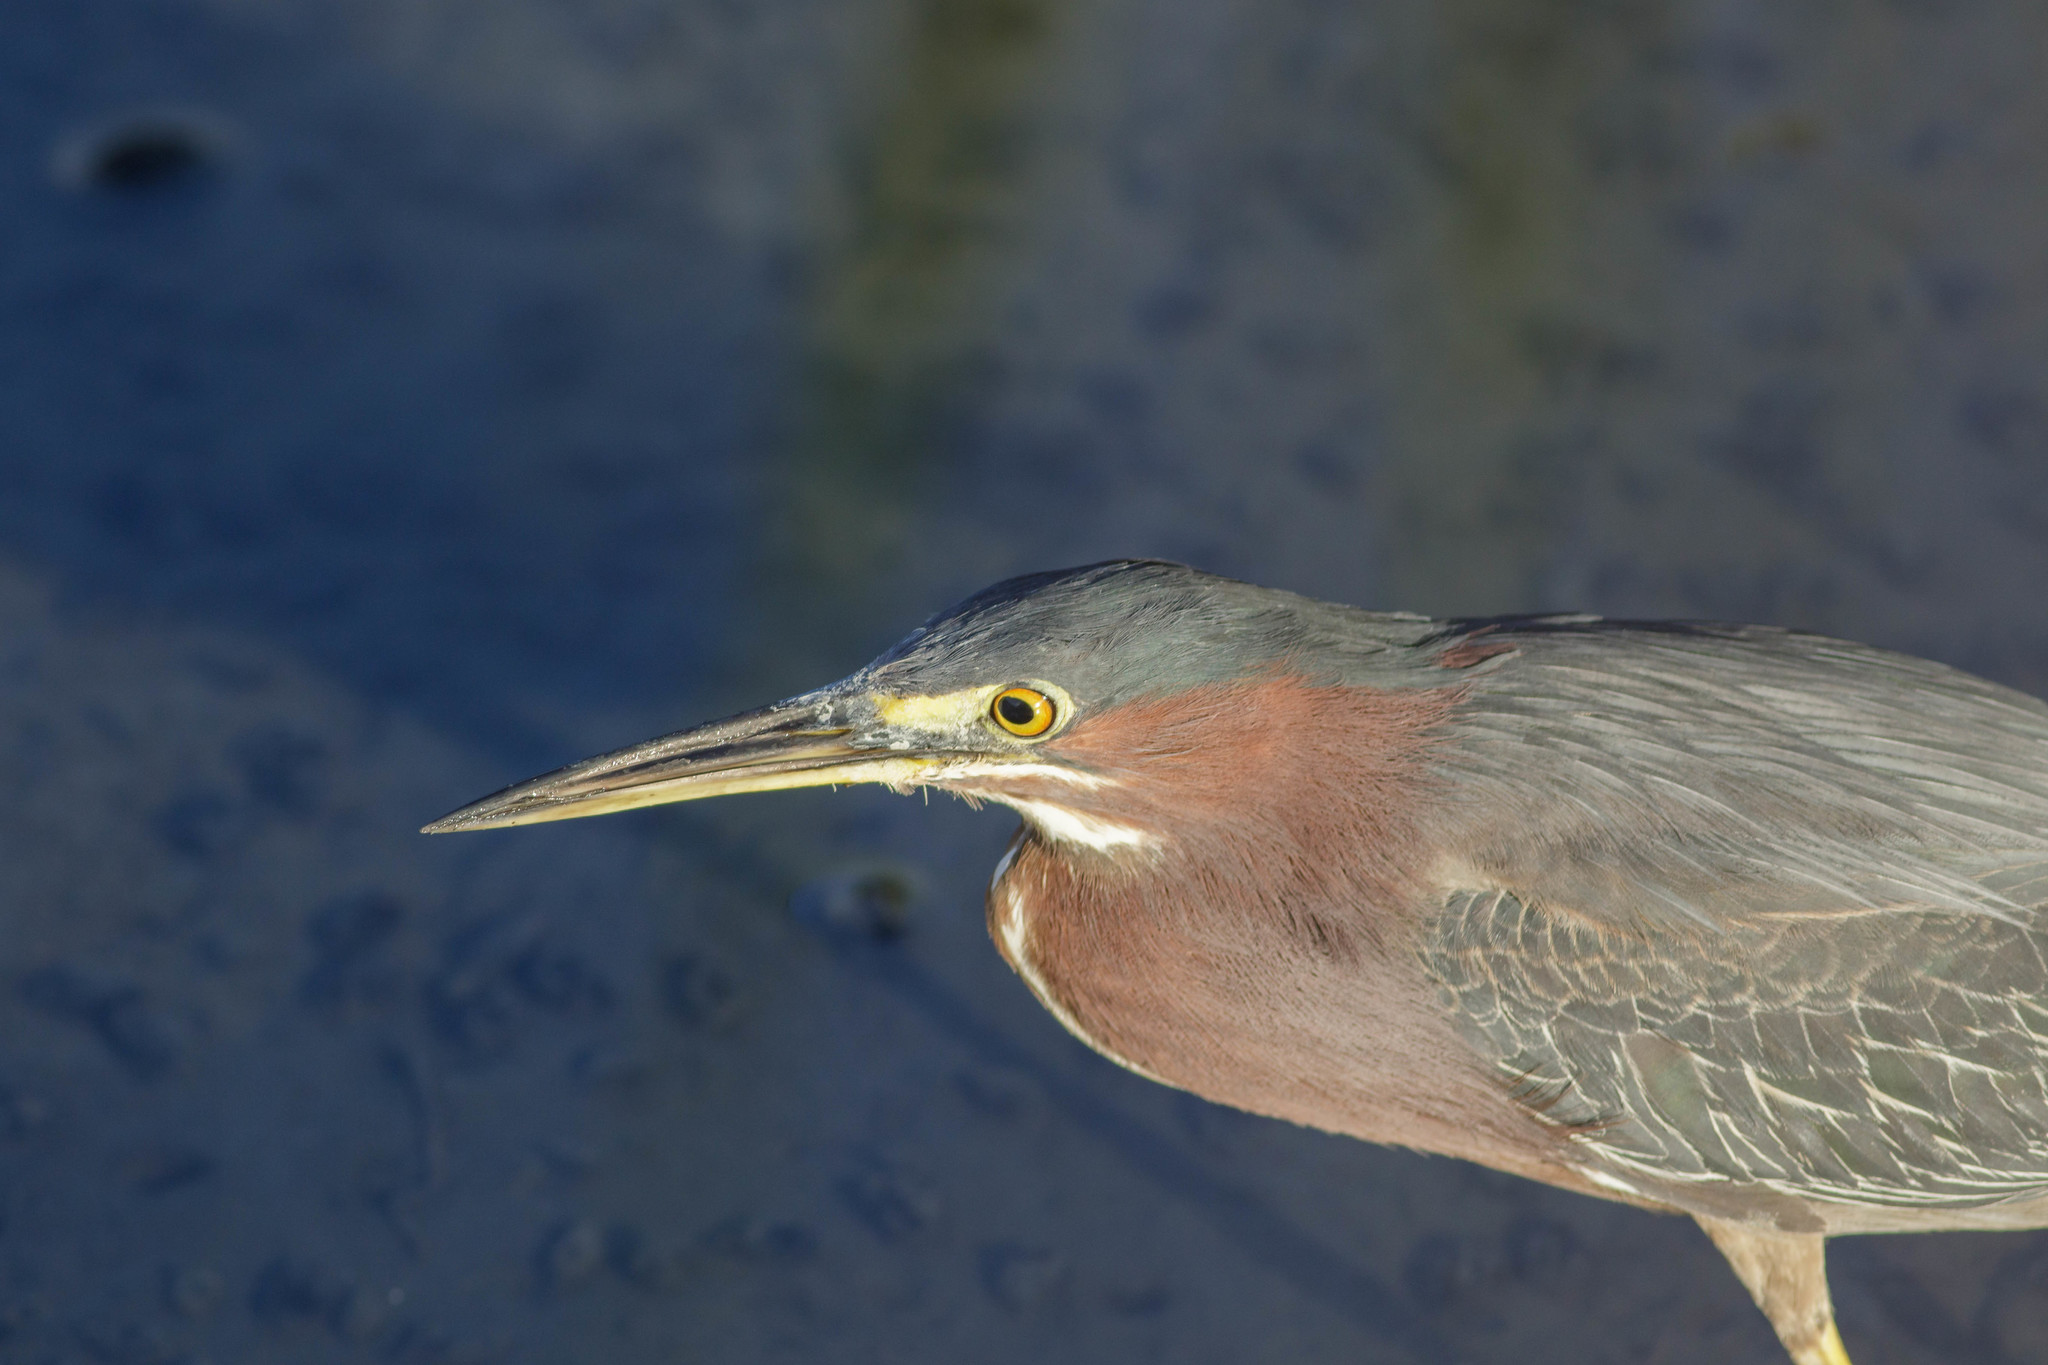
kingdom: Animalia
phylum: Chordata
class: Aves
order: Pelecaniformes
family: Ardeidae
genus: Butorides
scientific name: Butorides virescens
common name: Green heron
